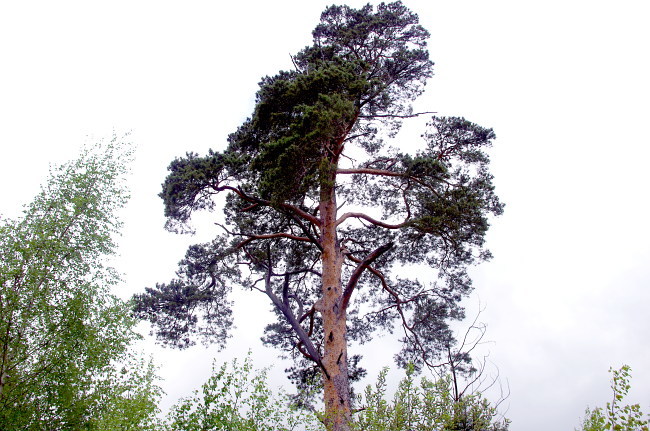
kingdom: Plantae
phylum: Tracheophyta
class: Pinopsida
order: Pinales
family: Pinaceae
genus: Pinus
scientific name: Pinus sylvestris
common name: Scots pine
